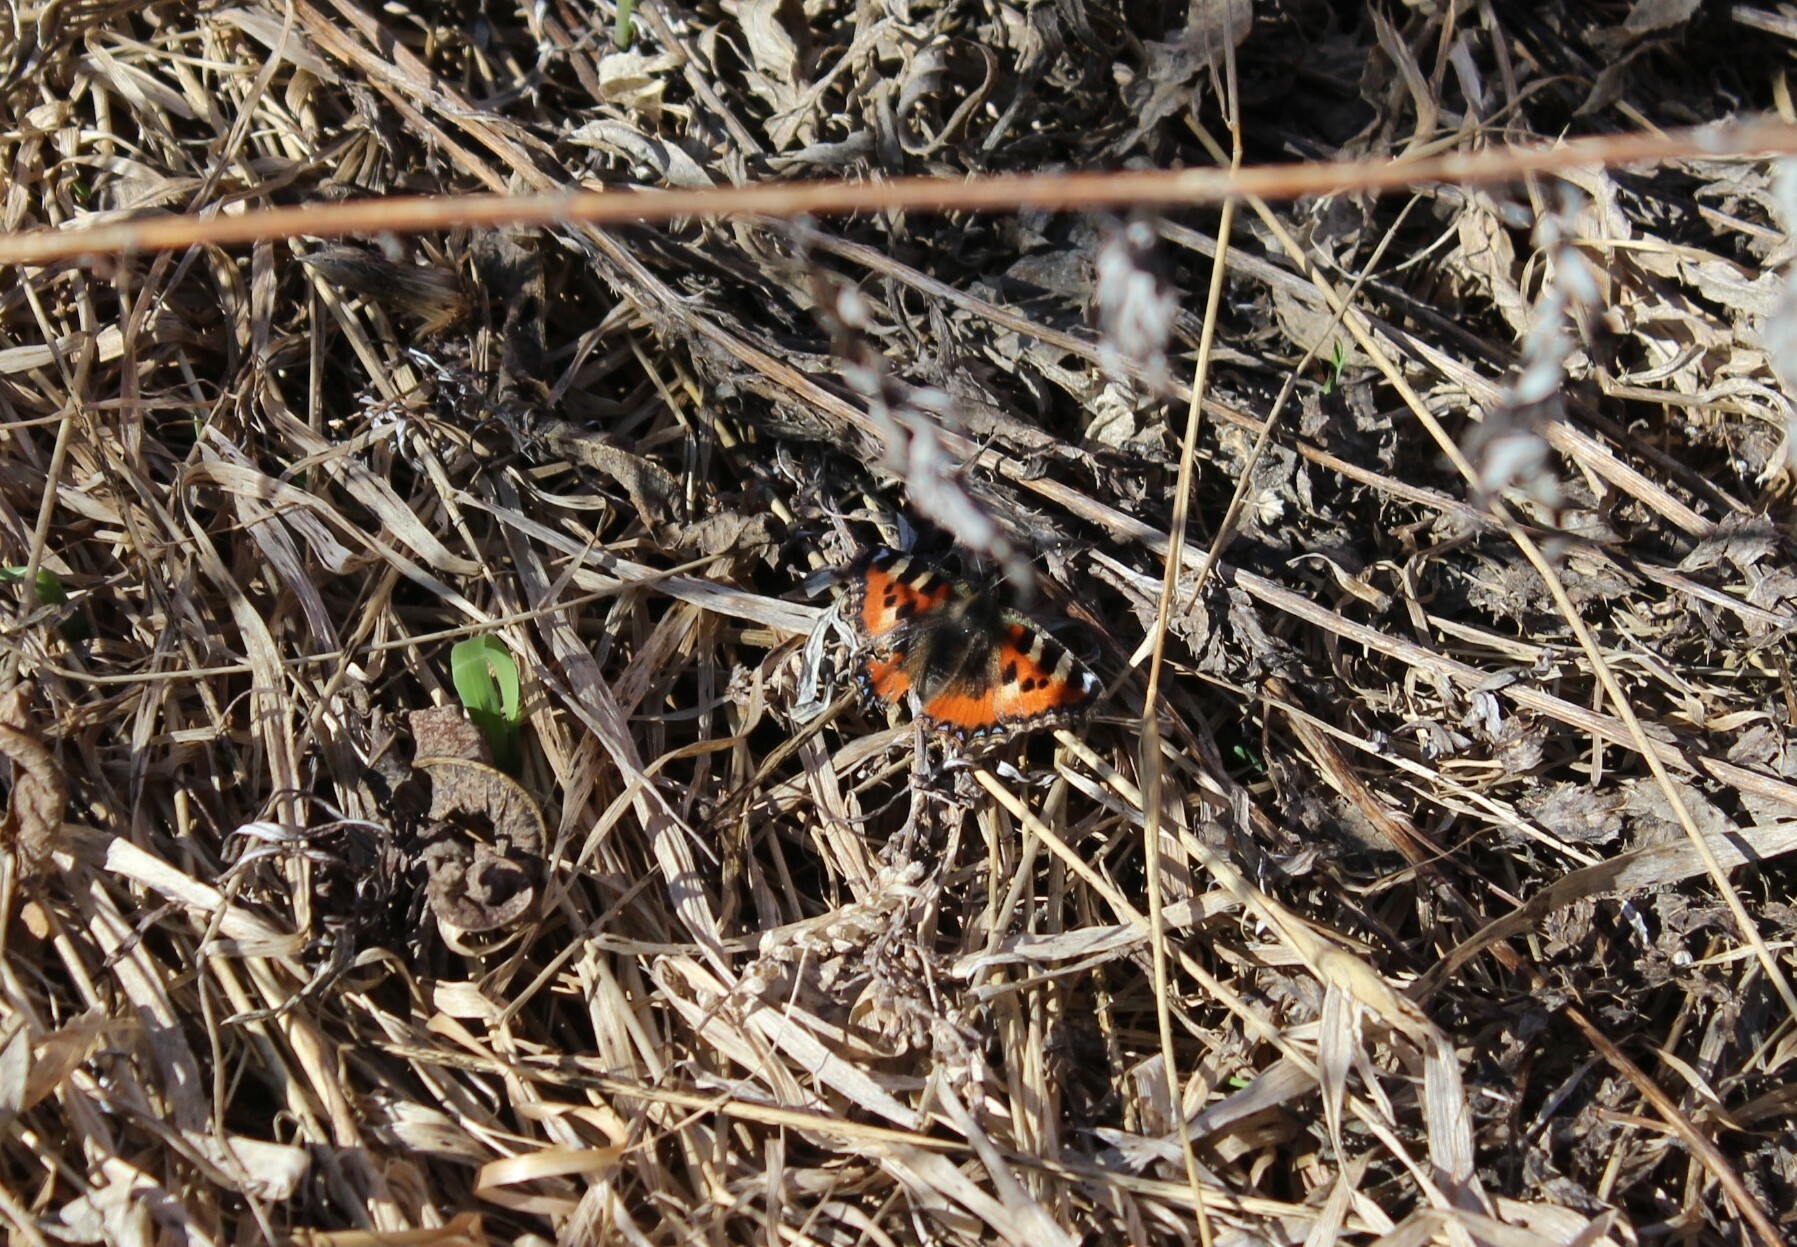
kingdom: Animalia
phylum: Arthropoda
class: Insecta
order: Lepidoptera
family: Nymphalidae
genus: Aglais
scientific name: Aglais urticae
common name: Small tortoiseshell
